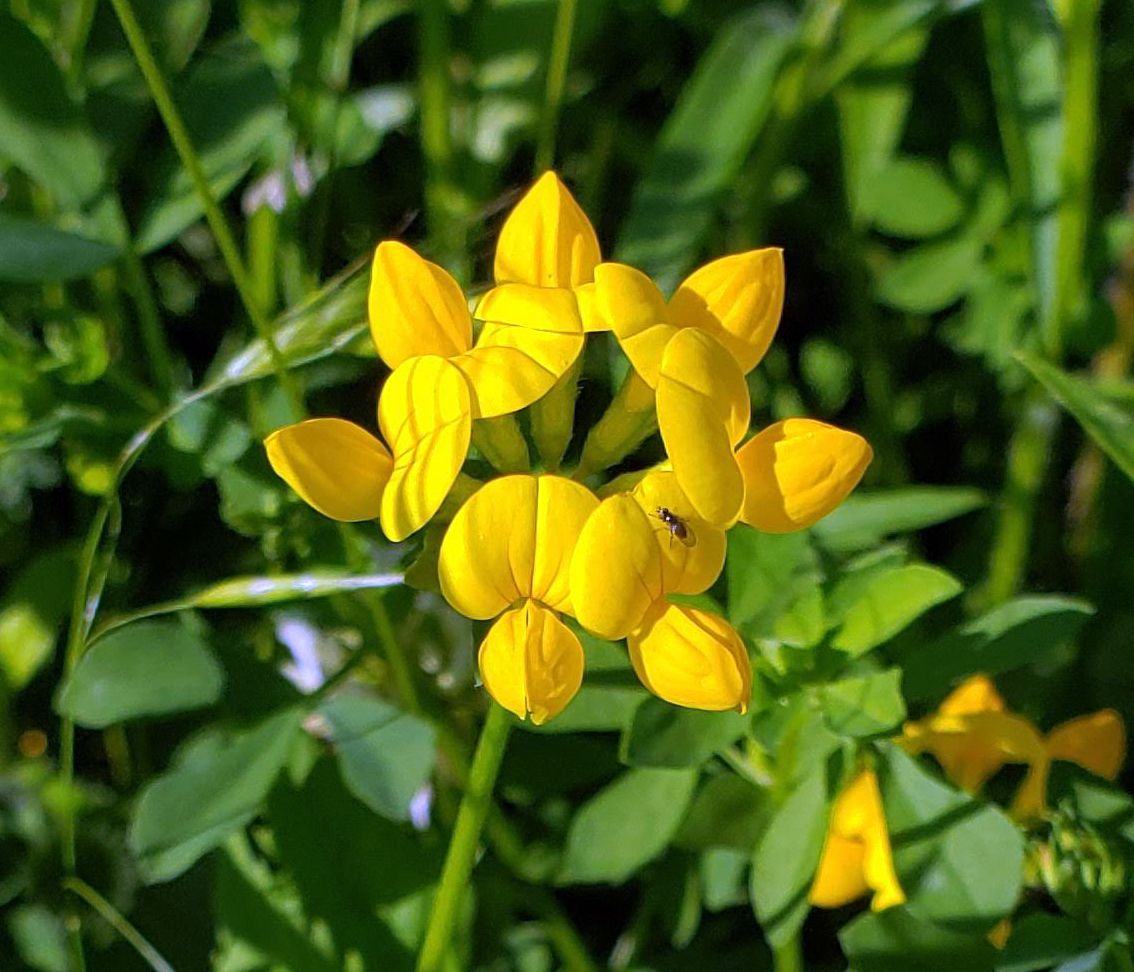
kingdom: Plantae
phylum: Tracheophyta
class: Magnoliopsida
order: Fabales
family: Fabaceae
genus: Lotus
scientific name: Lotus corniculatus
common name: Common bird's-foot-trefoil
